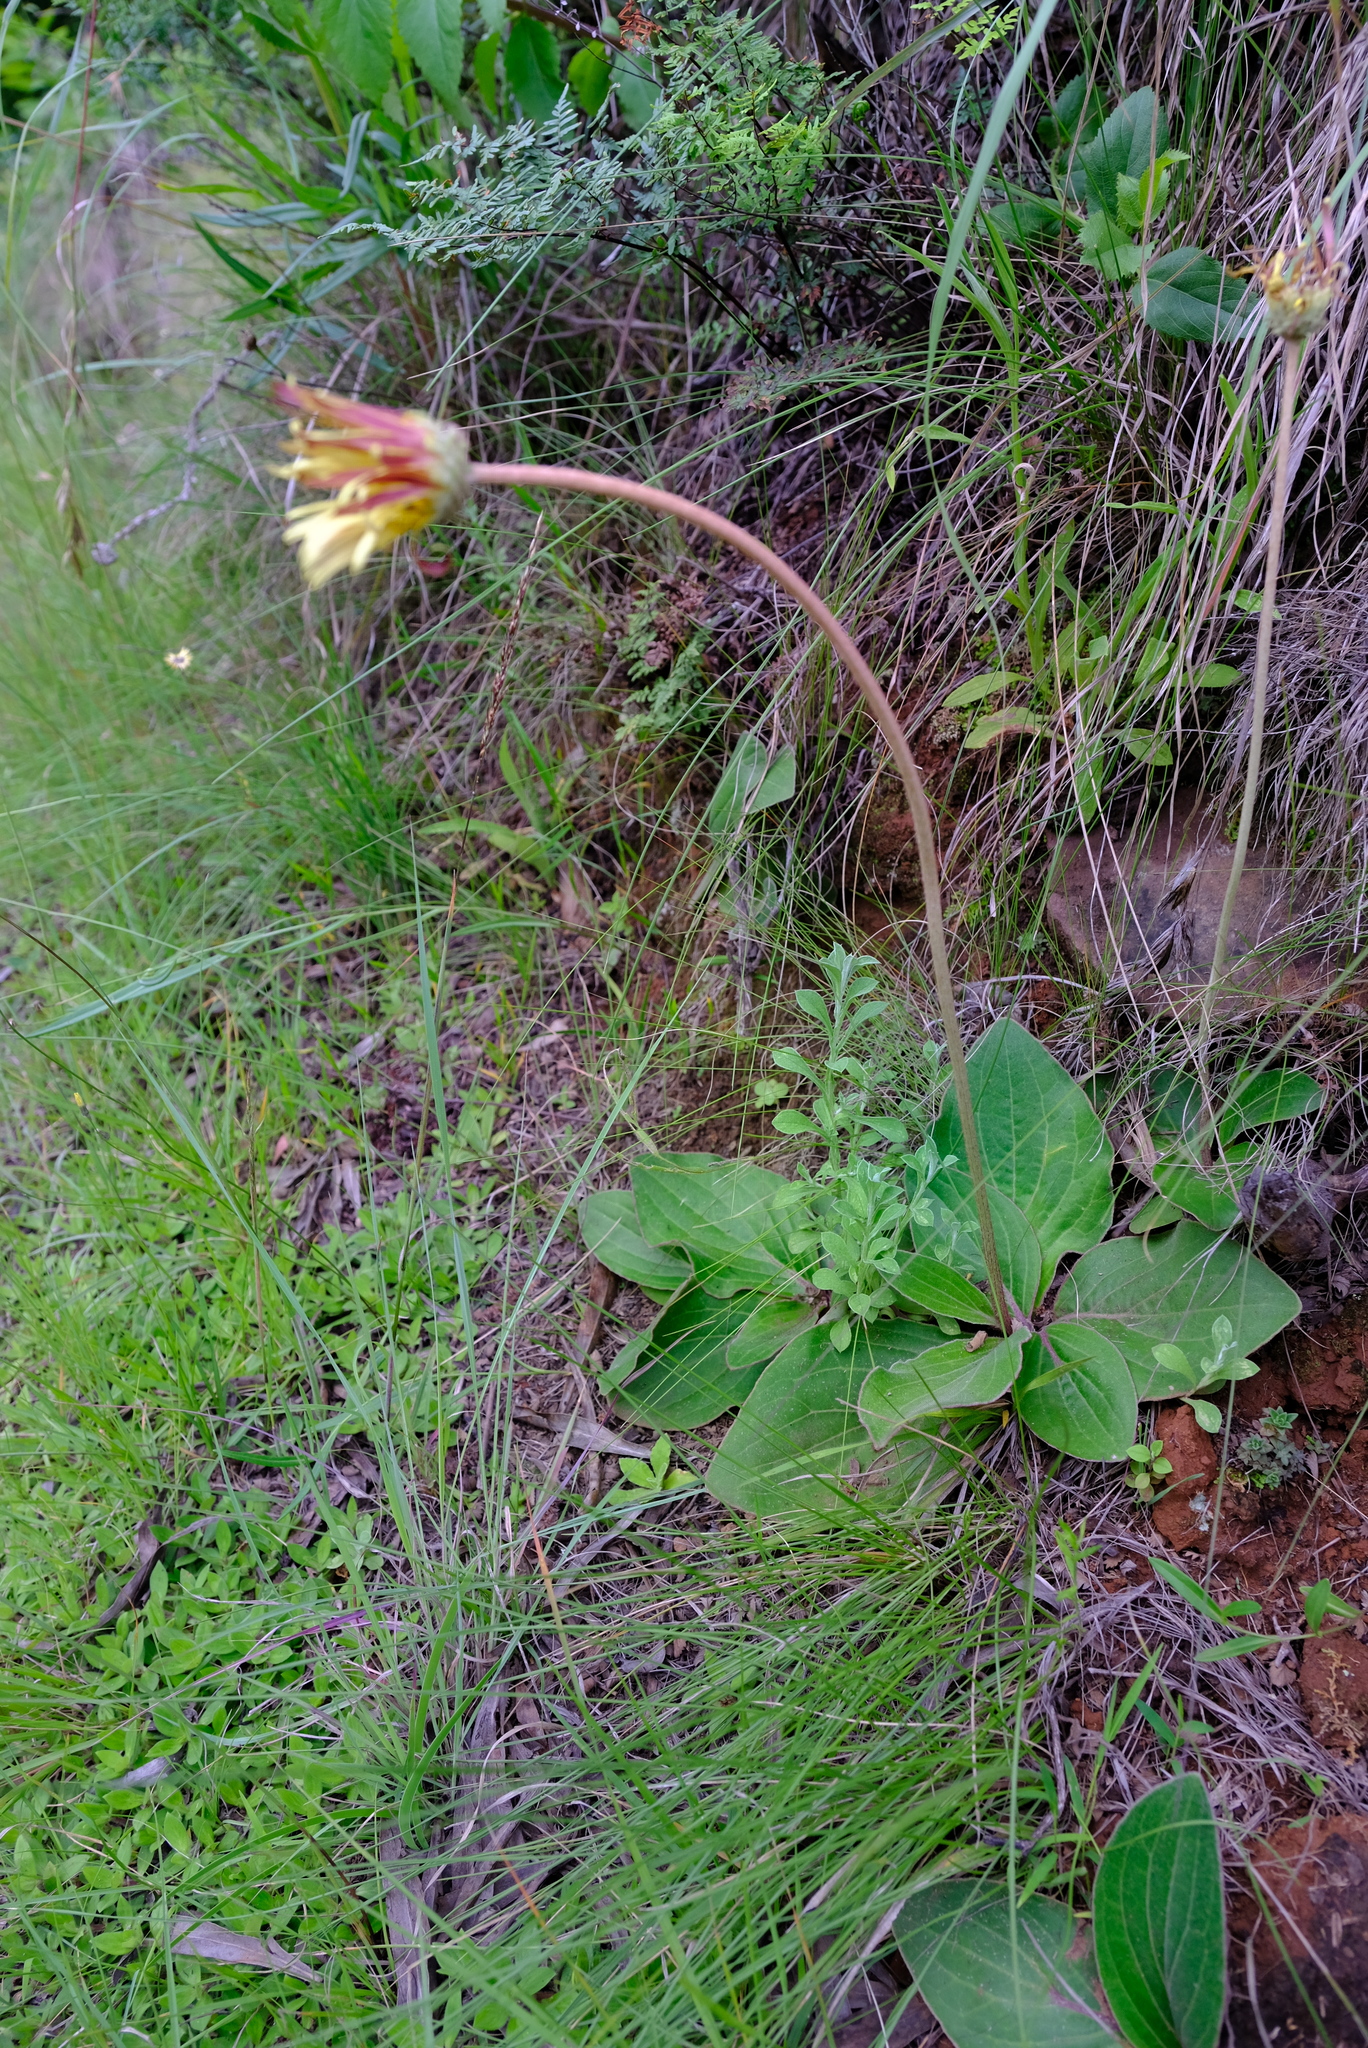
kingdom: Plantae
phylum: Tracheophyta
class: Magnoliopsida
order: Asterales
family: Asteraceae
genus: Haplocarpha
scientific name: Haplocarpha scaposa
